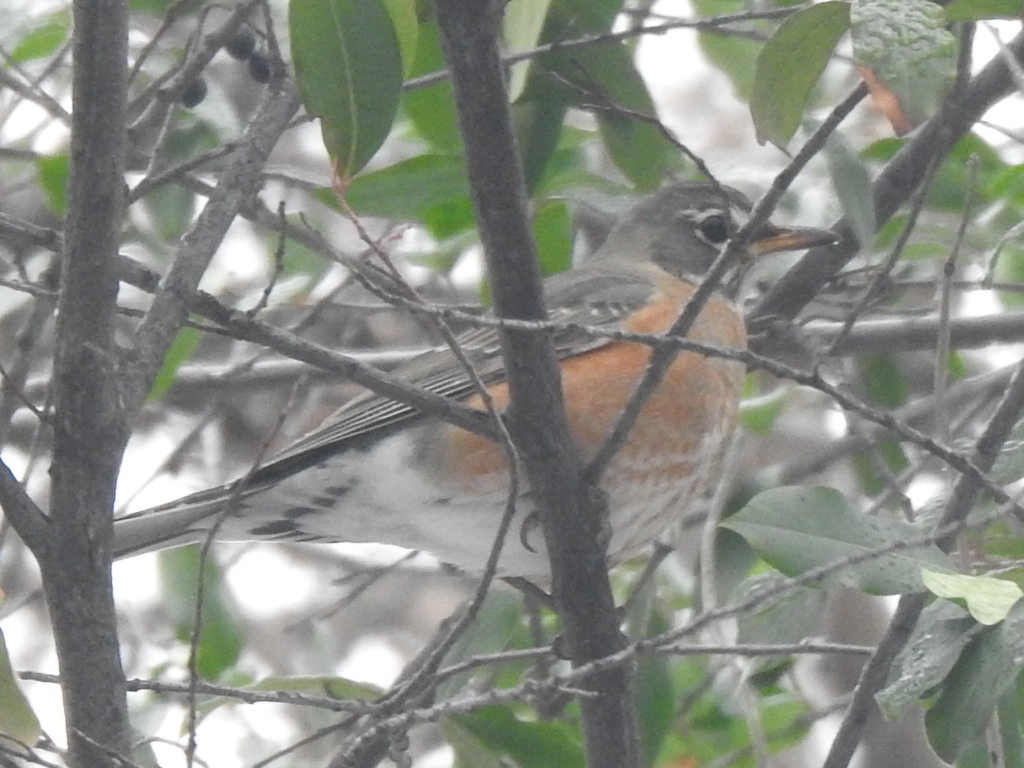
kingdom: Animalia
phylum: Chordata
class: Aves
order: Passeriformes
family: Turdidae
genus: Turdus
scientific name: Turdus migratorius
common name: American robin
